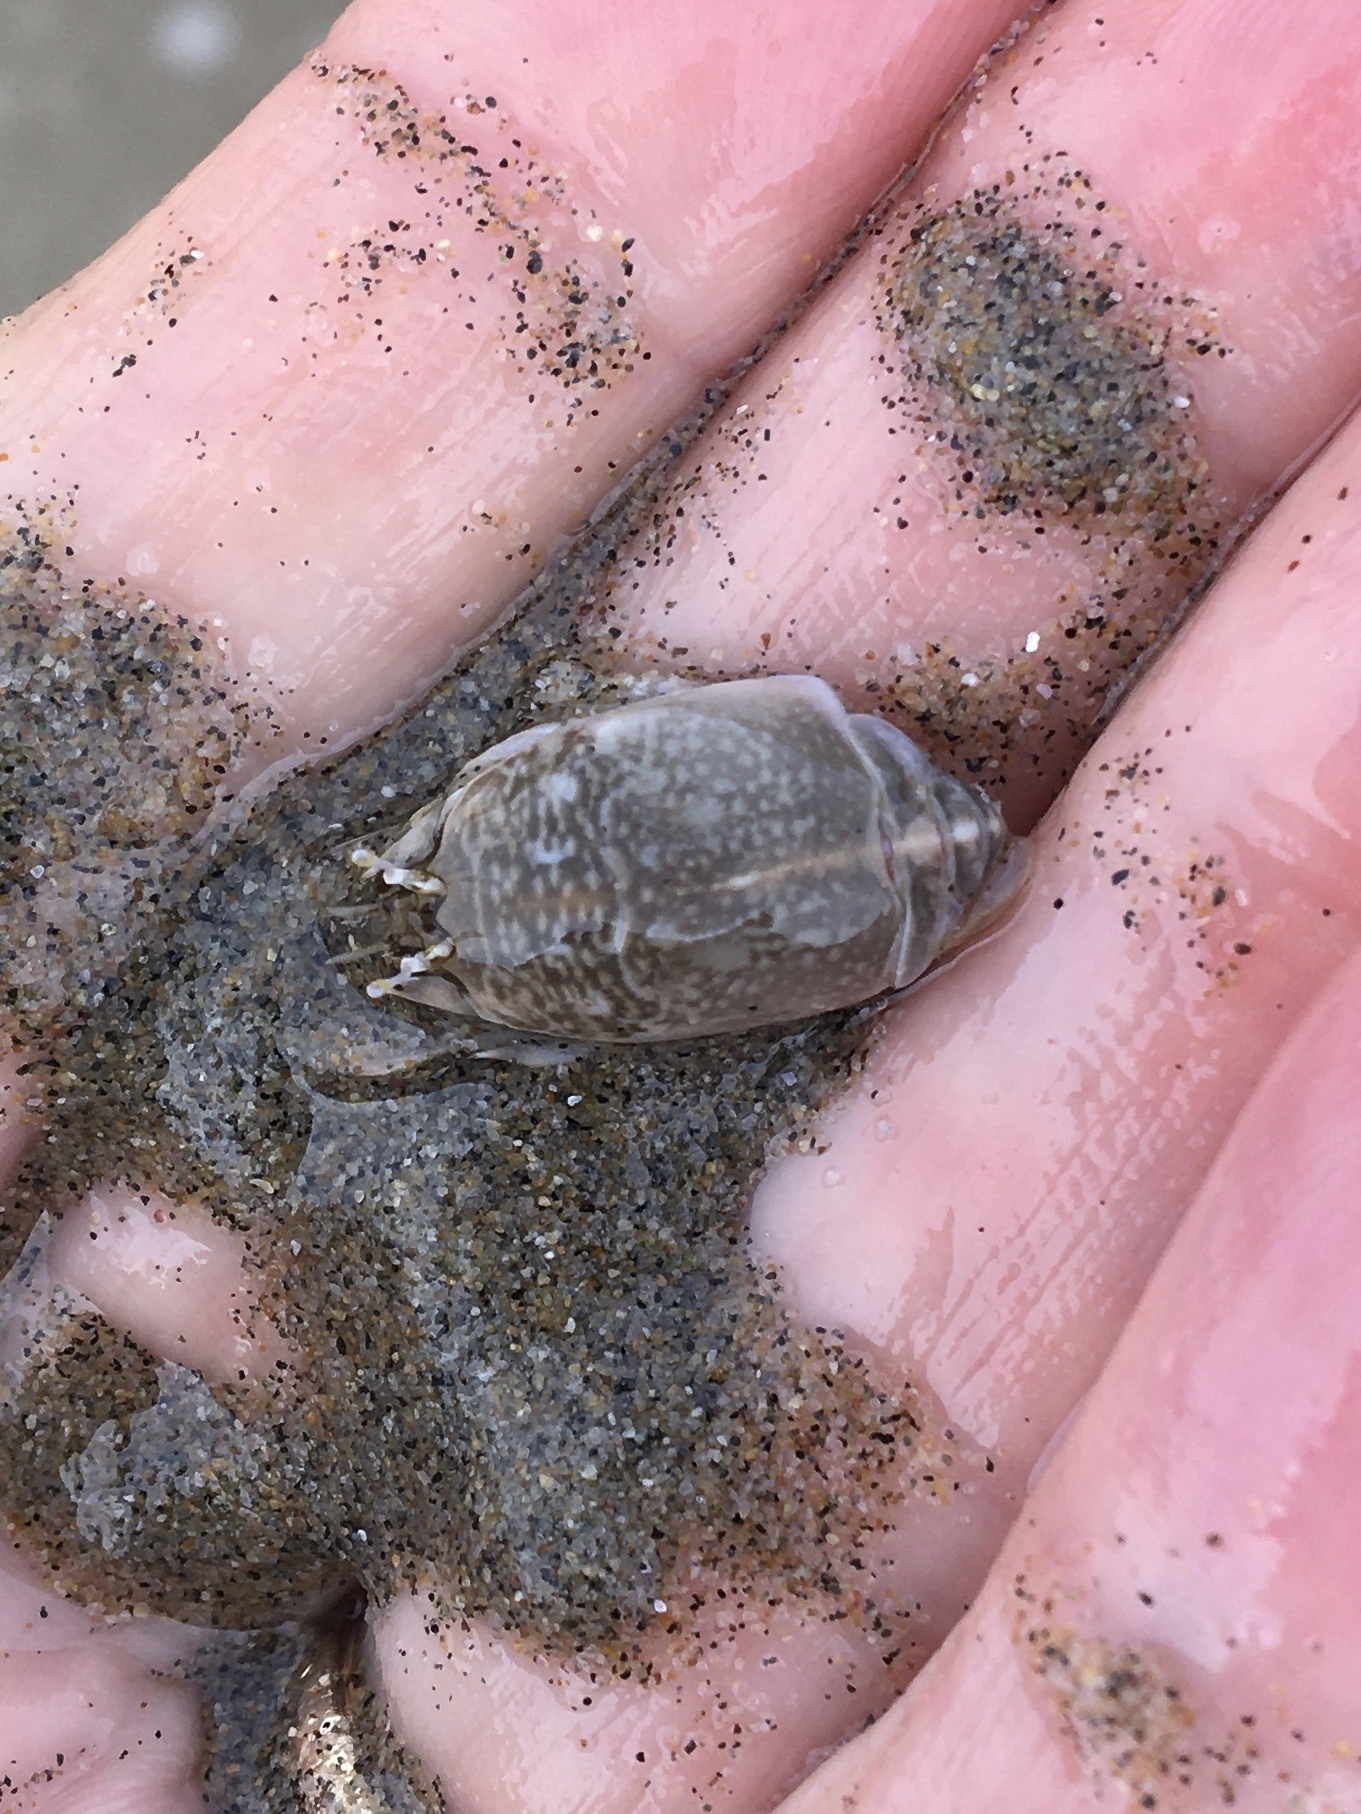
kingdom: Animalia
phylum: Arthropoda
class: Malacostraca
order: Decapoda
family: Hippidae
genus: Emerita
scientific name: Emerita analoga
